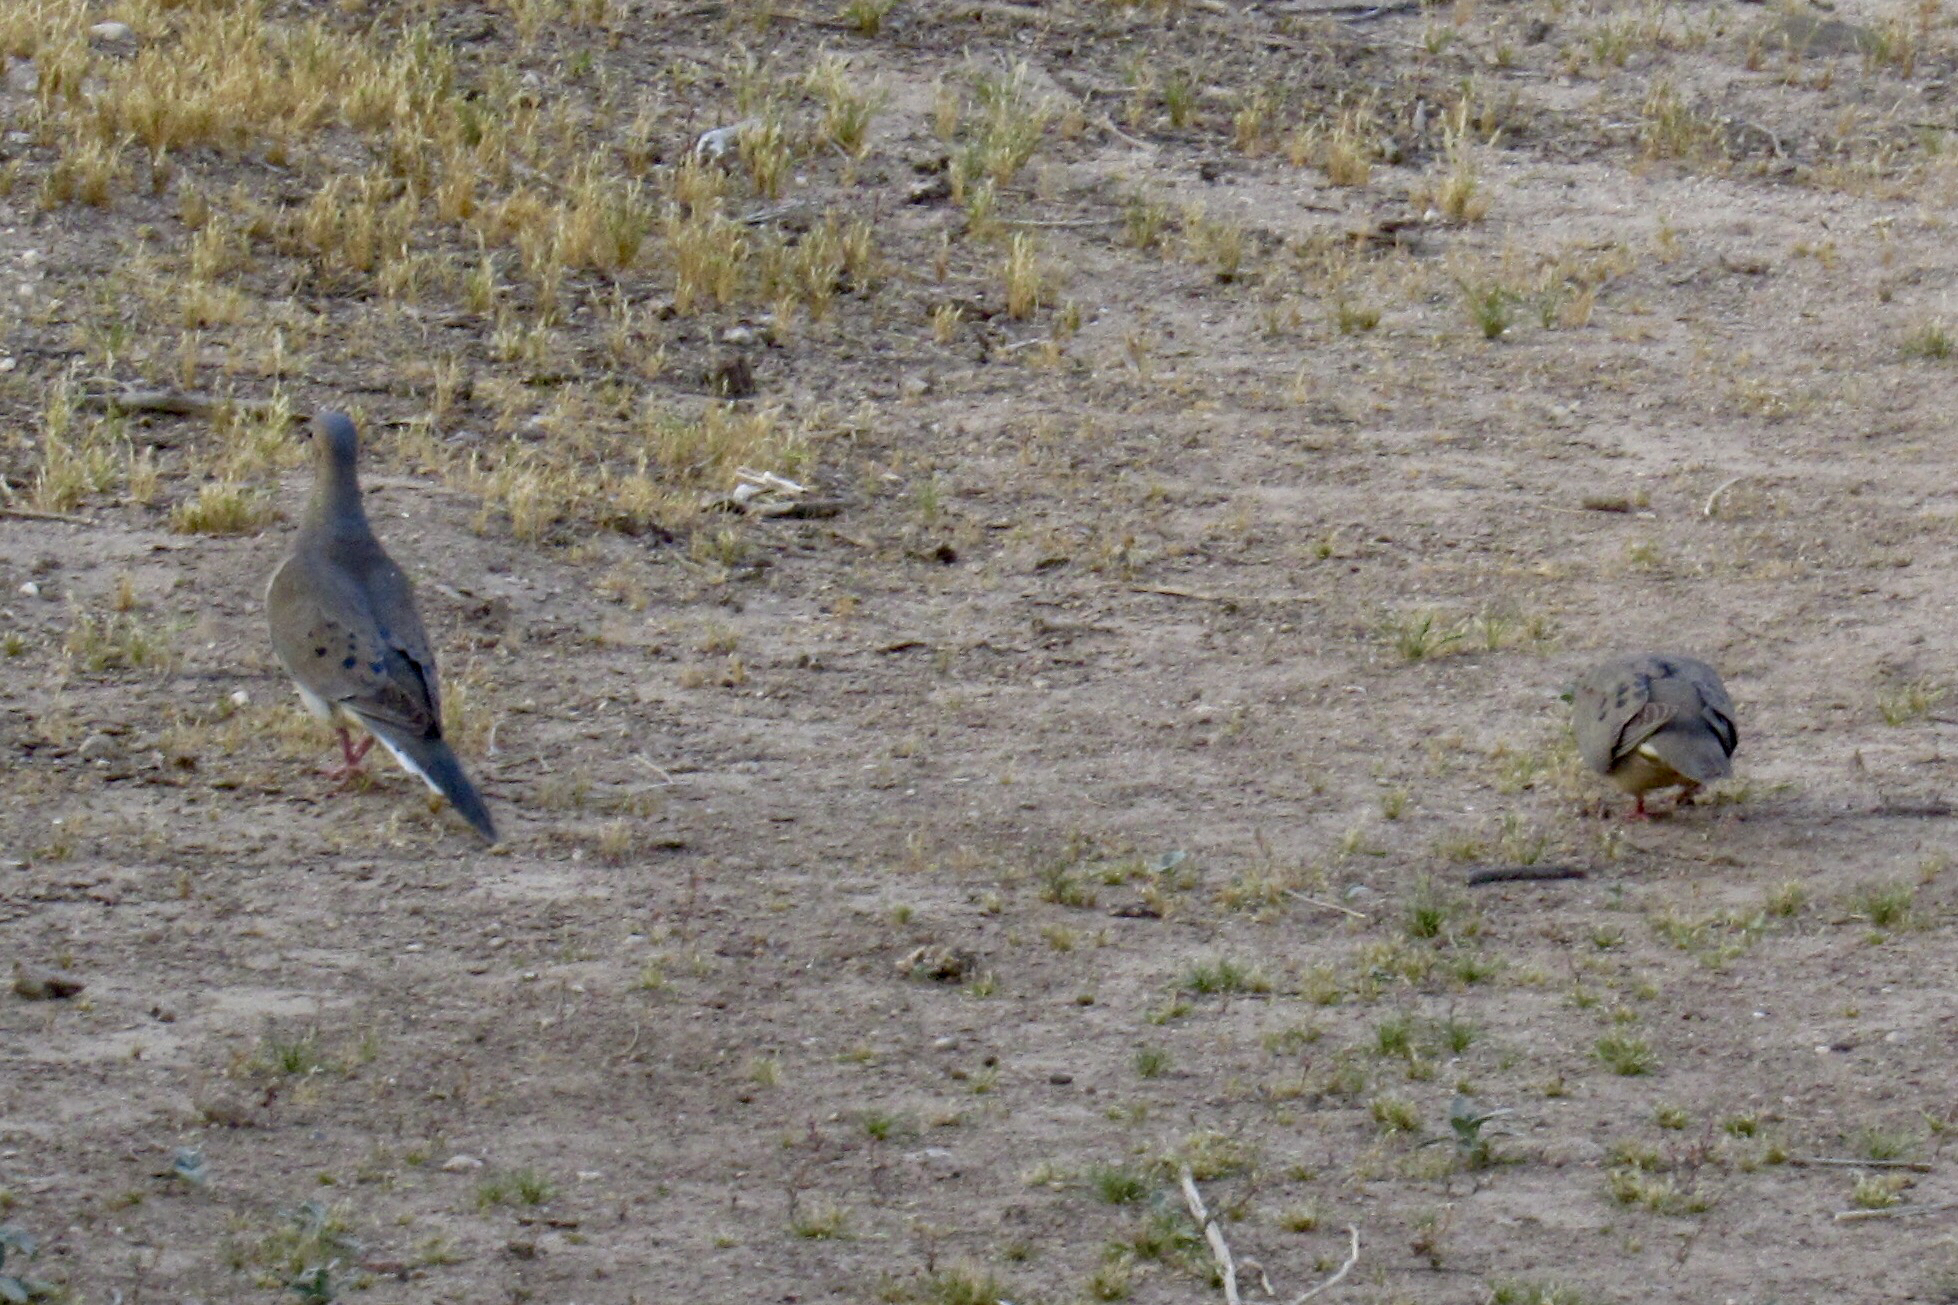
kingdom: Animalia
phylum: Chordata
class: Aves
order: Columbiformes
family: Columbidae
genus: Zenaida
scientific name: Zenaida macroura
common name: Mourning dove
